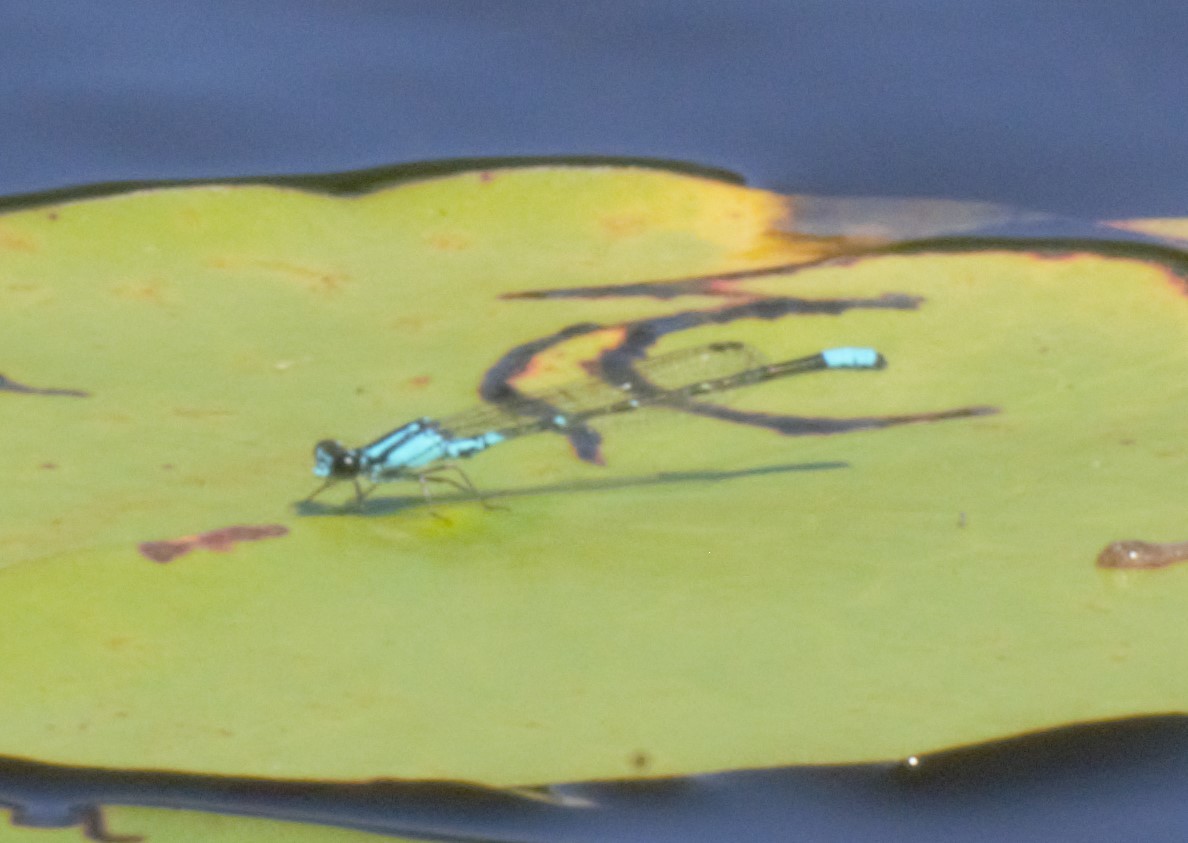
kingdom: Animalia
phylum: Arthropoda
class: Insecta
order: Odonata
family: Coenagrionidae
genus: Enallagma
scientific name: Enallagma geminatum
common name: Skimming bluet
